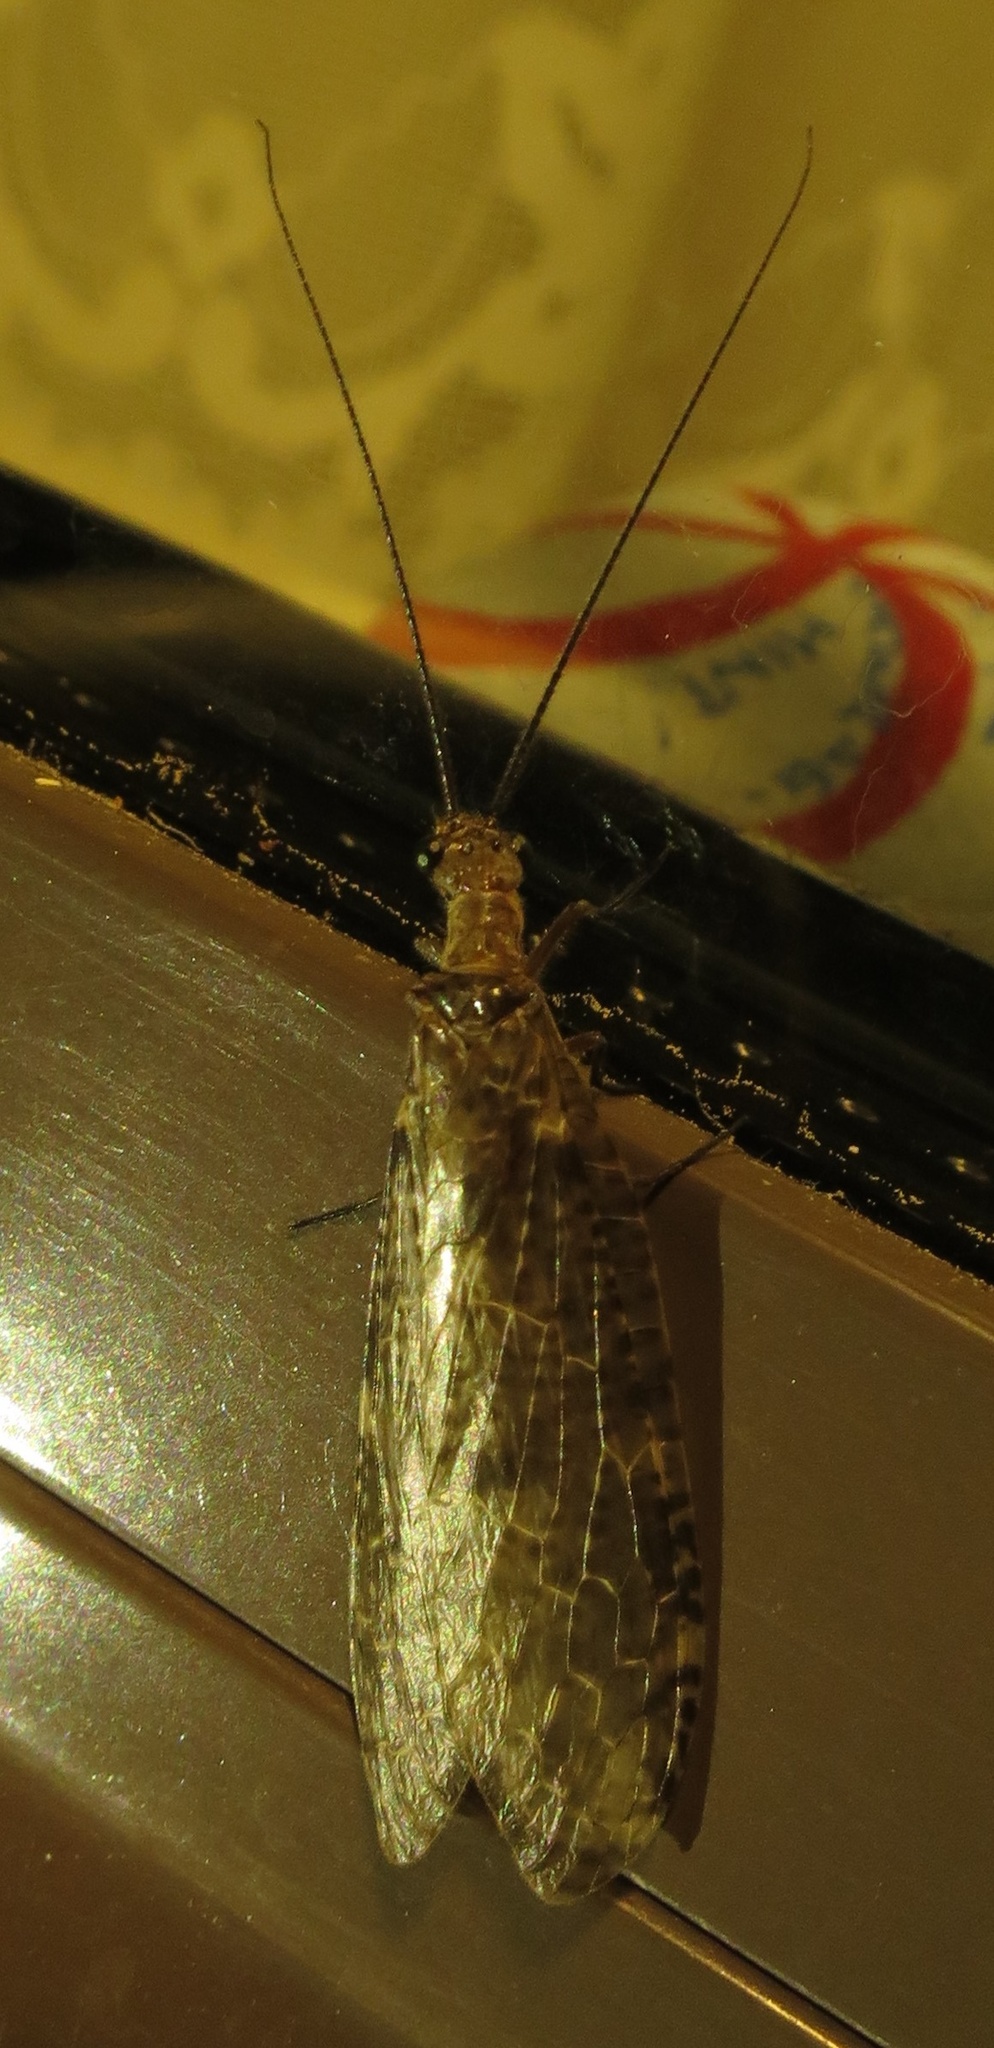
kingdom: Animalia
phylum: Arthropoda
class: Insecta
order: Megaloptera
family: Corydalidae
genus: Archichauliodes
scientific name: Archichauliodes diversus
